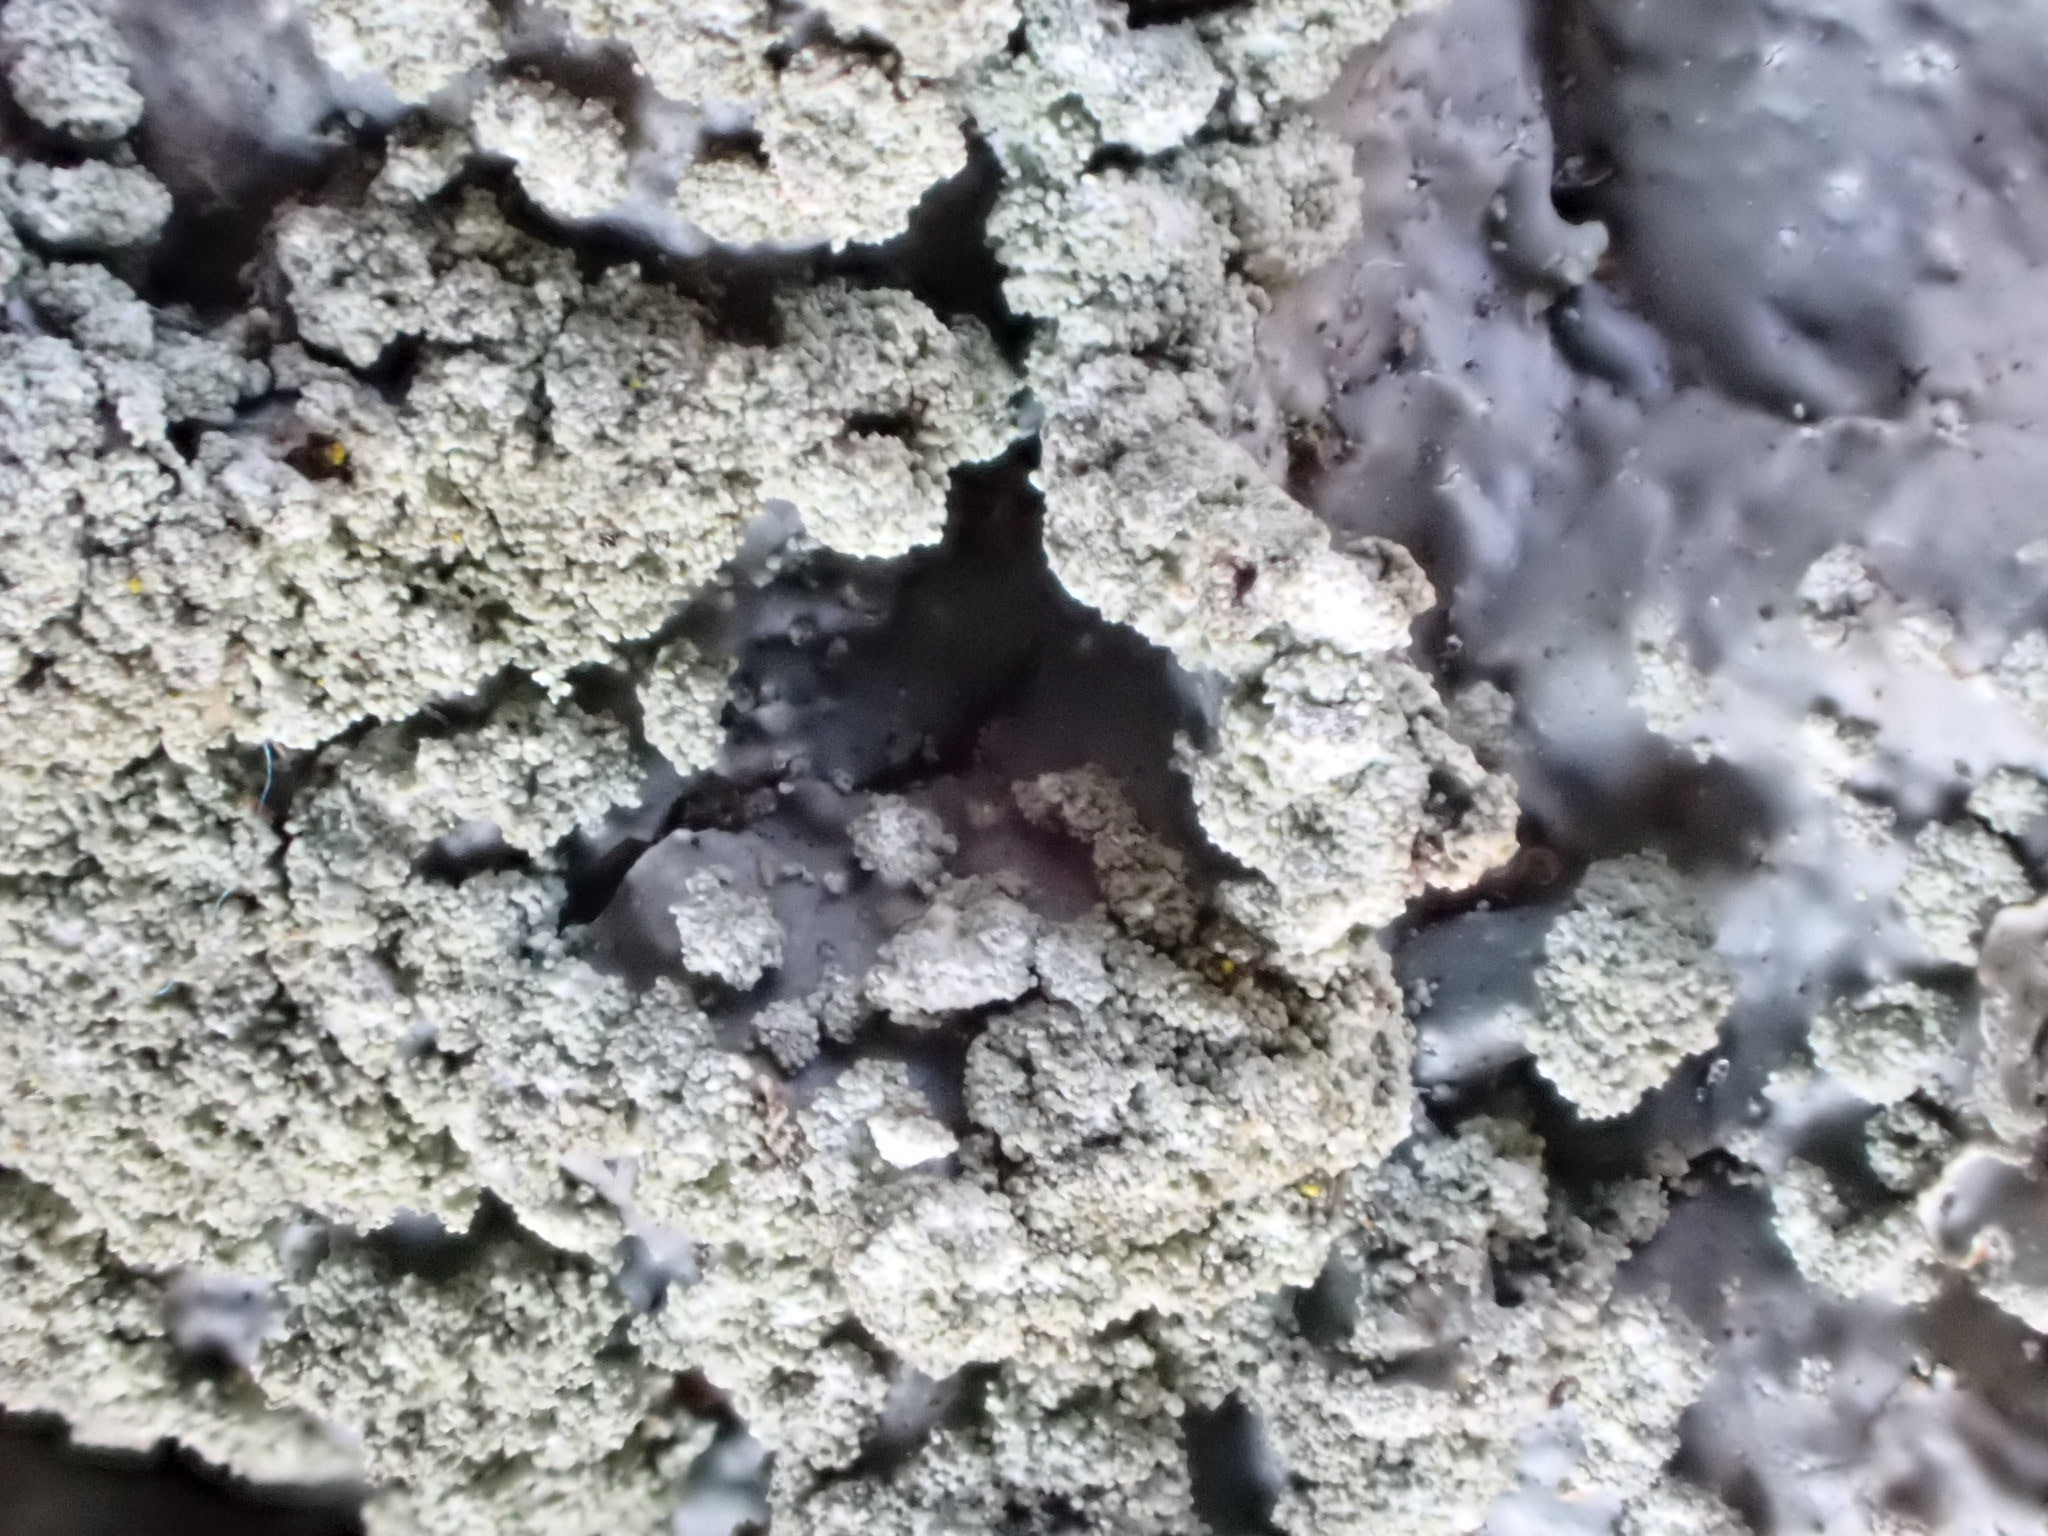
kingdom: Fungi
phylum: Ascomycota
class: Lecanoromycetes
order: Lecanorales
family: Parmeliaceae
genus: Punctelia
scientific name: Punctelia borreri
